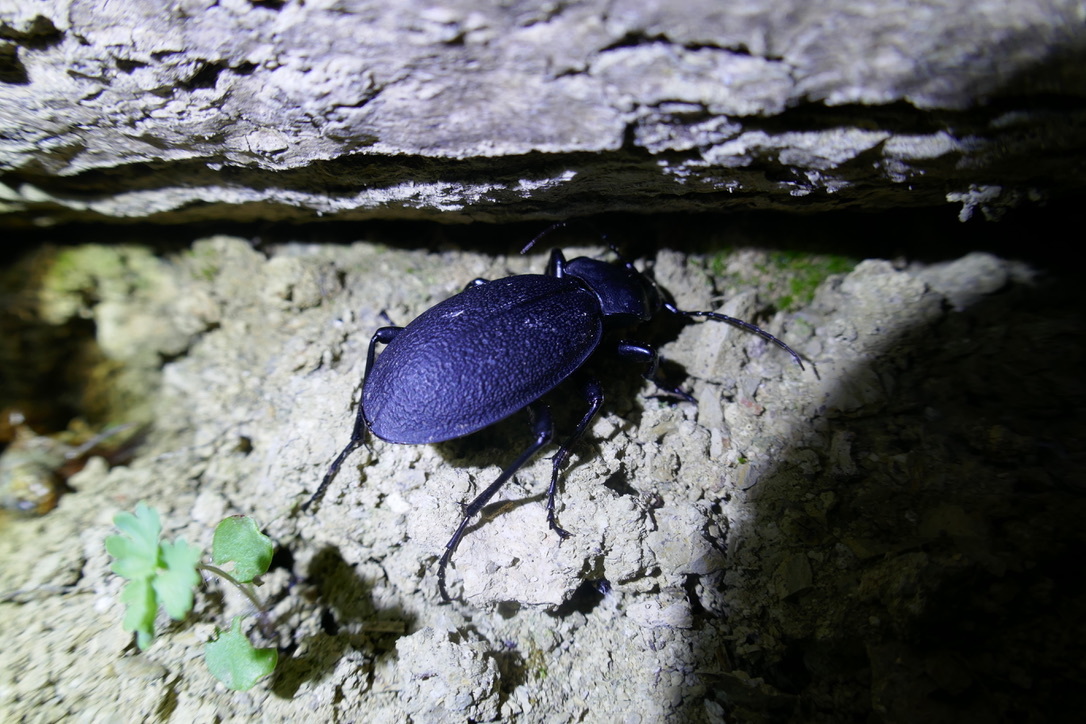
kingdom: Animalia
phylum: Arthropoda
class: Insecta
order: Coleoptera
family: Carabidae
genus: Carabus
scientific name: Carabus coriaceus
